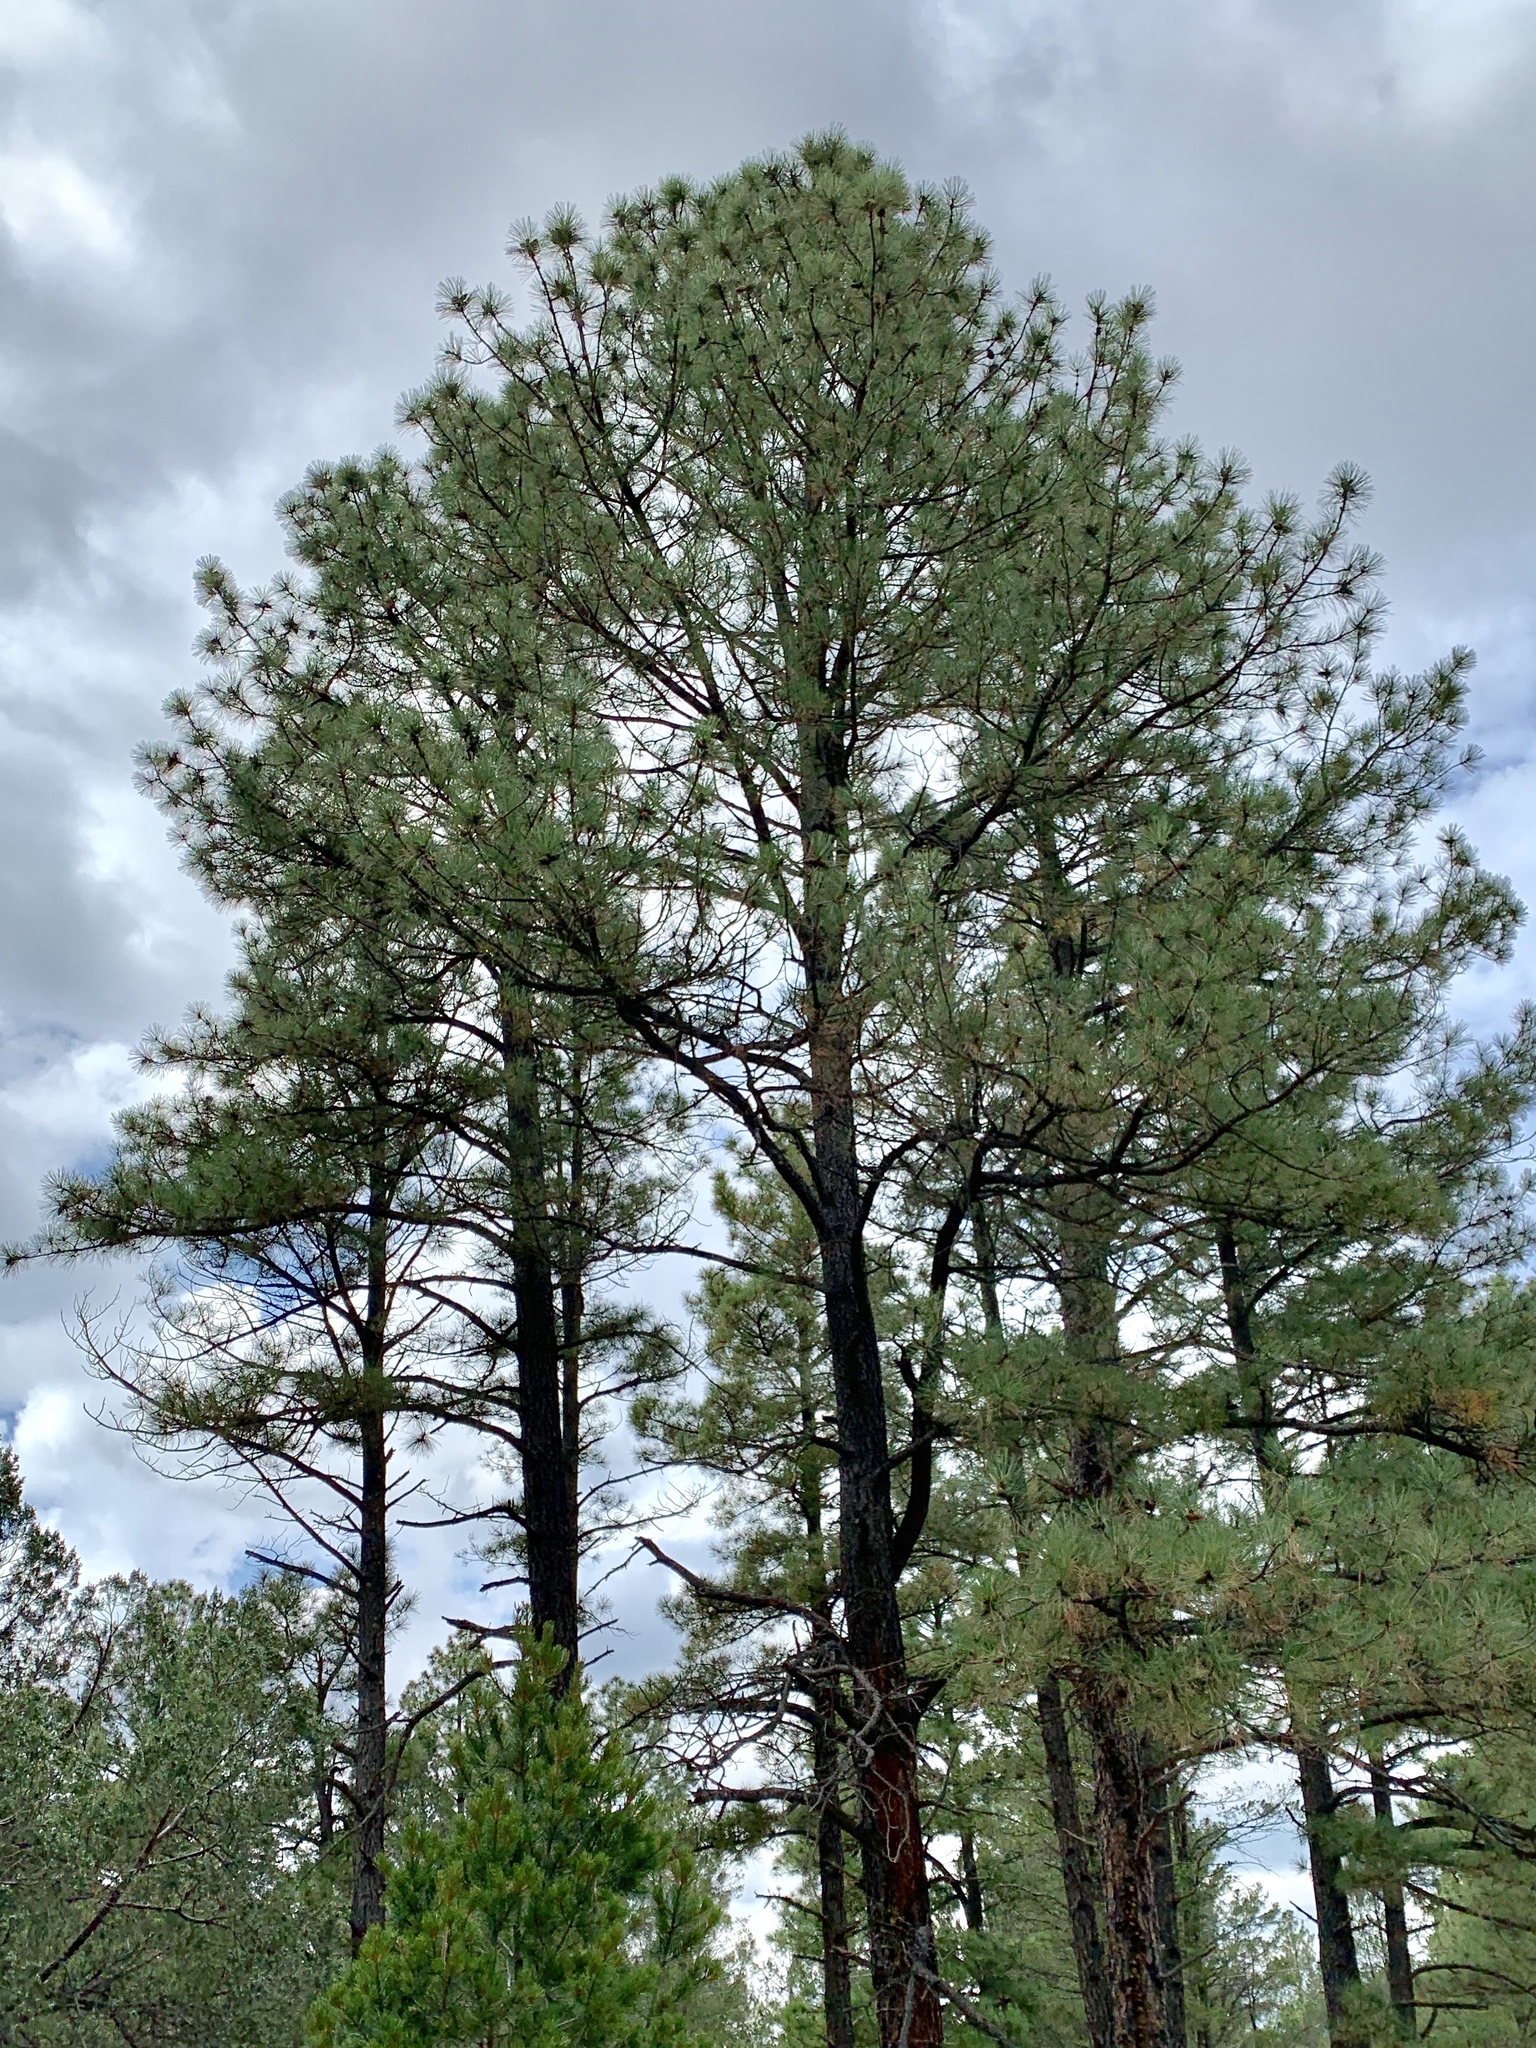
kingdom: Plantae
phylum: Tracheophyta
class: Pinopsida
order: Pinales
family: Pinaceae
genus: Pinus
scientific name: Pinus ponderosa
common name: Western yellow-pine
